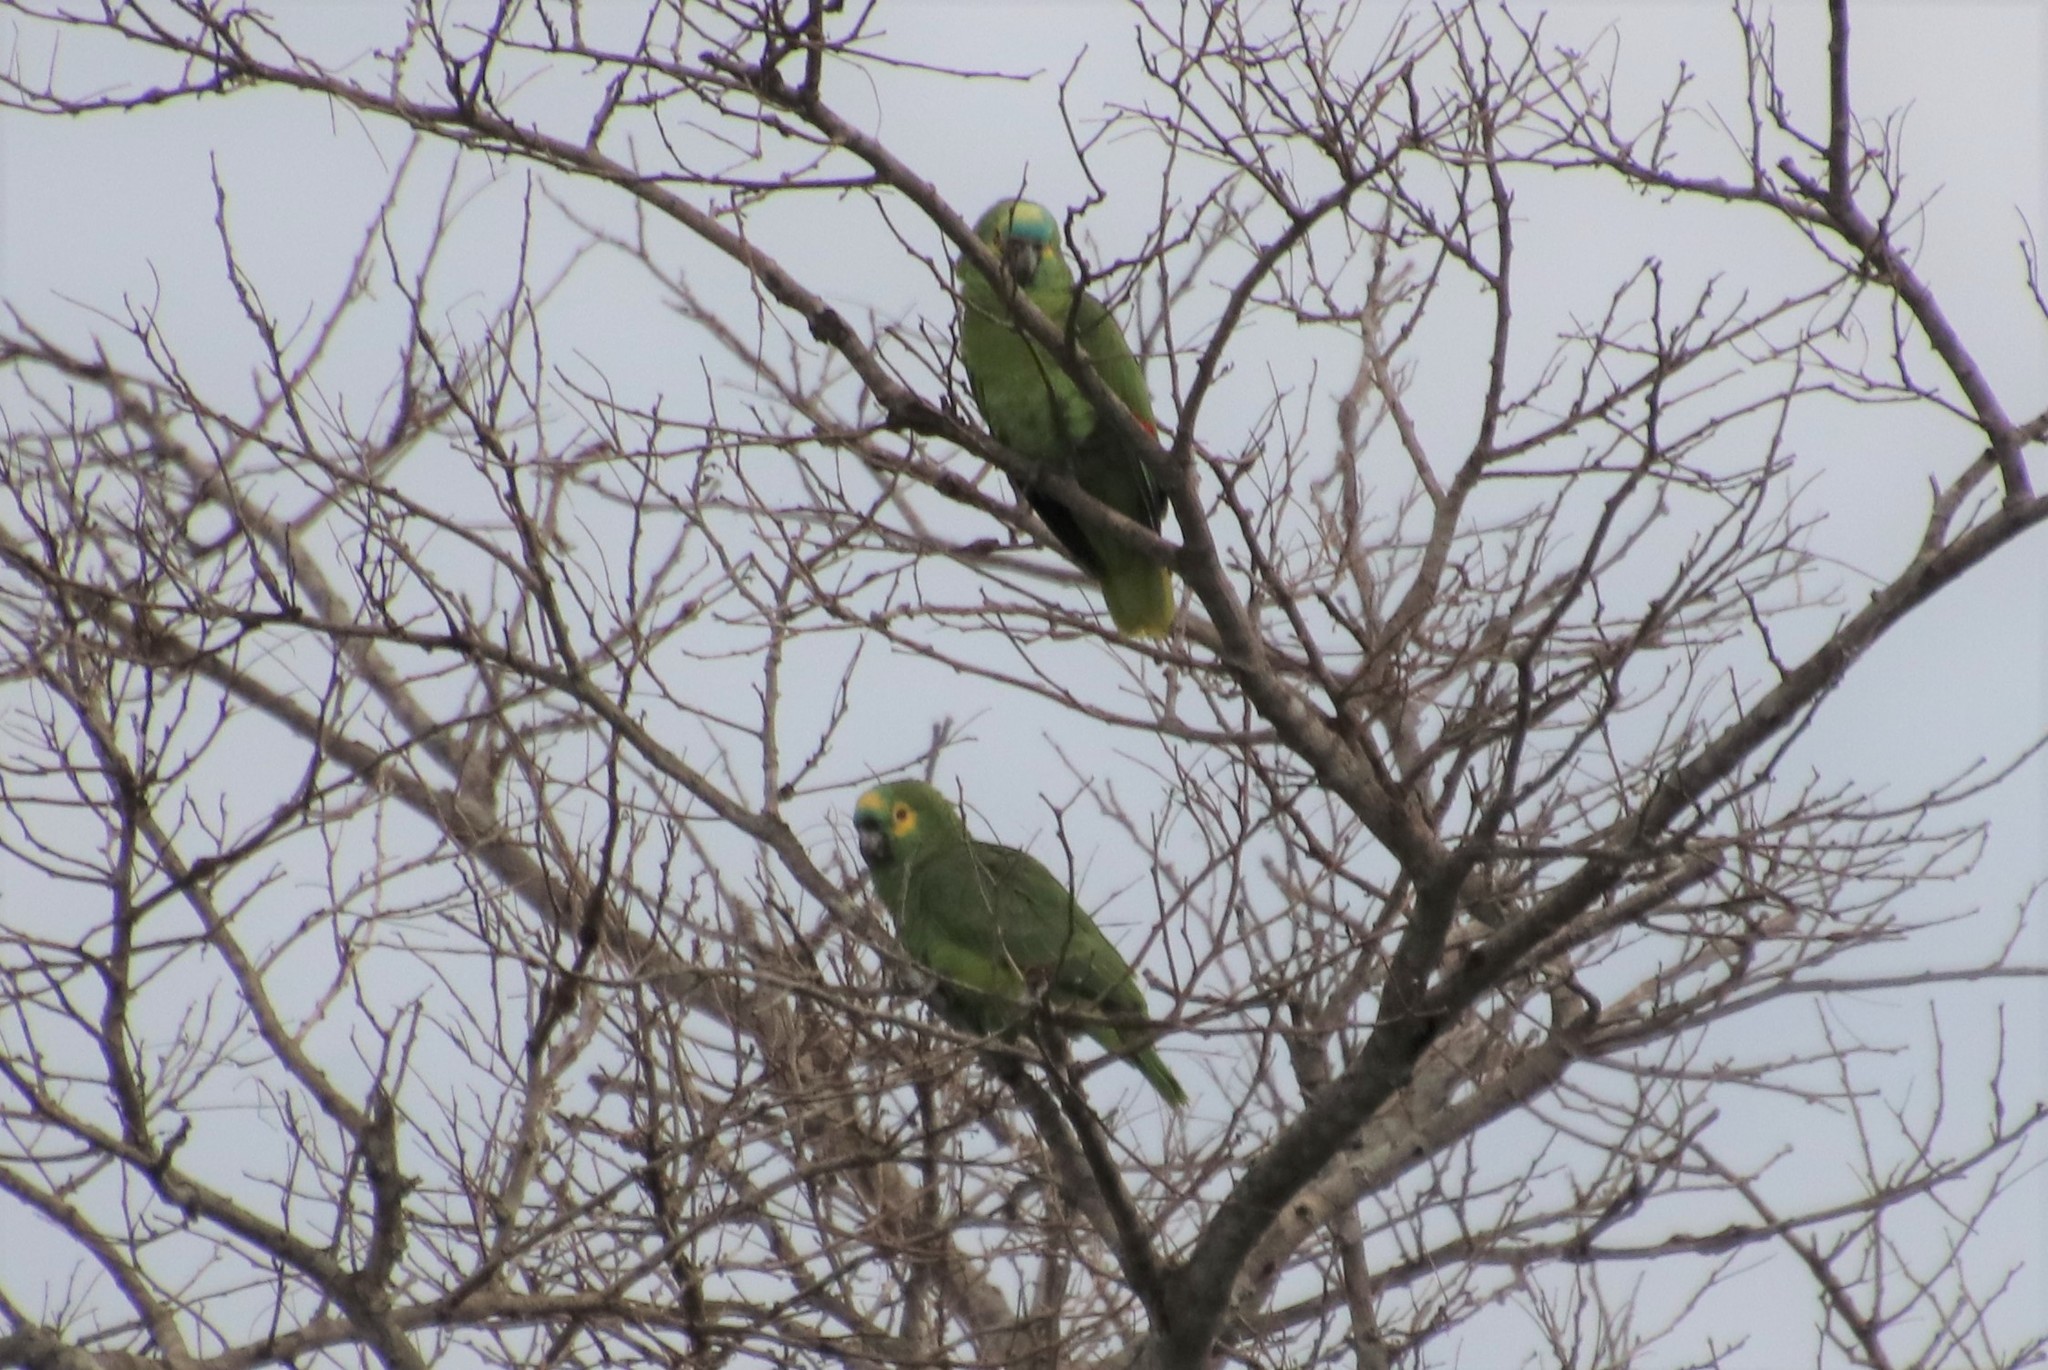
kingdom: Animalia
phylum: Chordata
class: Aves
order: Psittaciformes
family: Psittacidae
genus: Amazona
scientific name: Amazona aestiva
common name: Turquoise-fronted amazon
